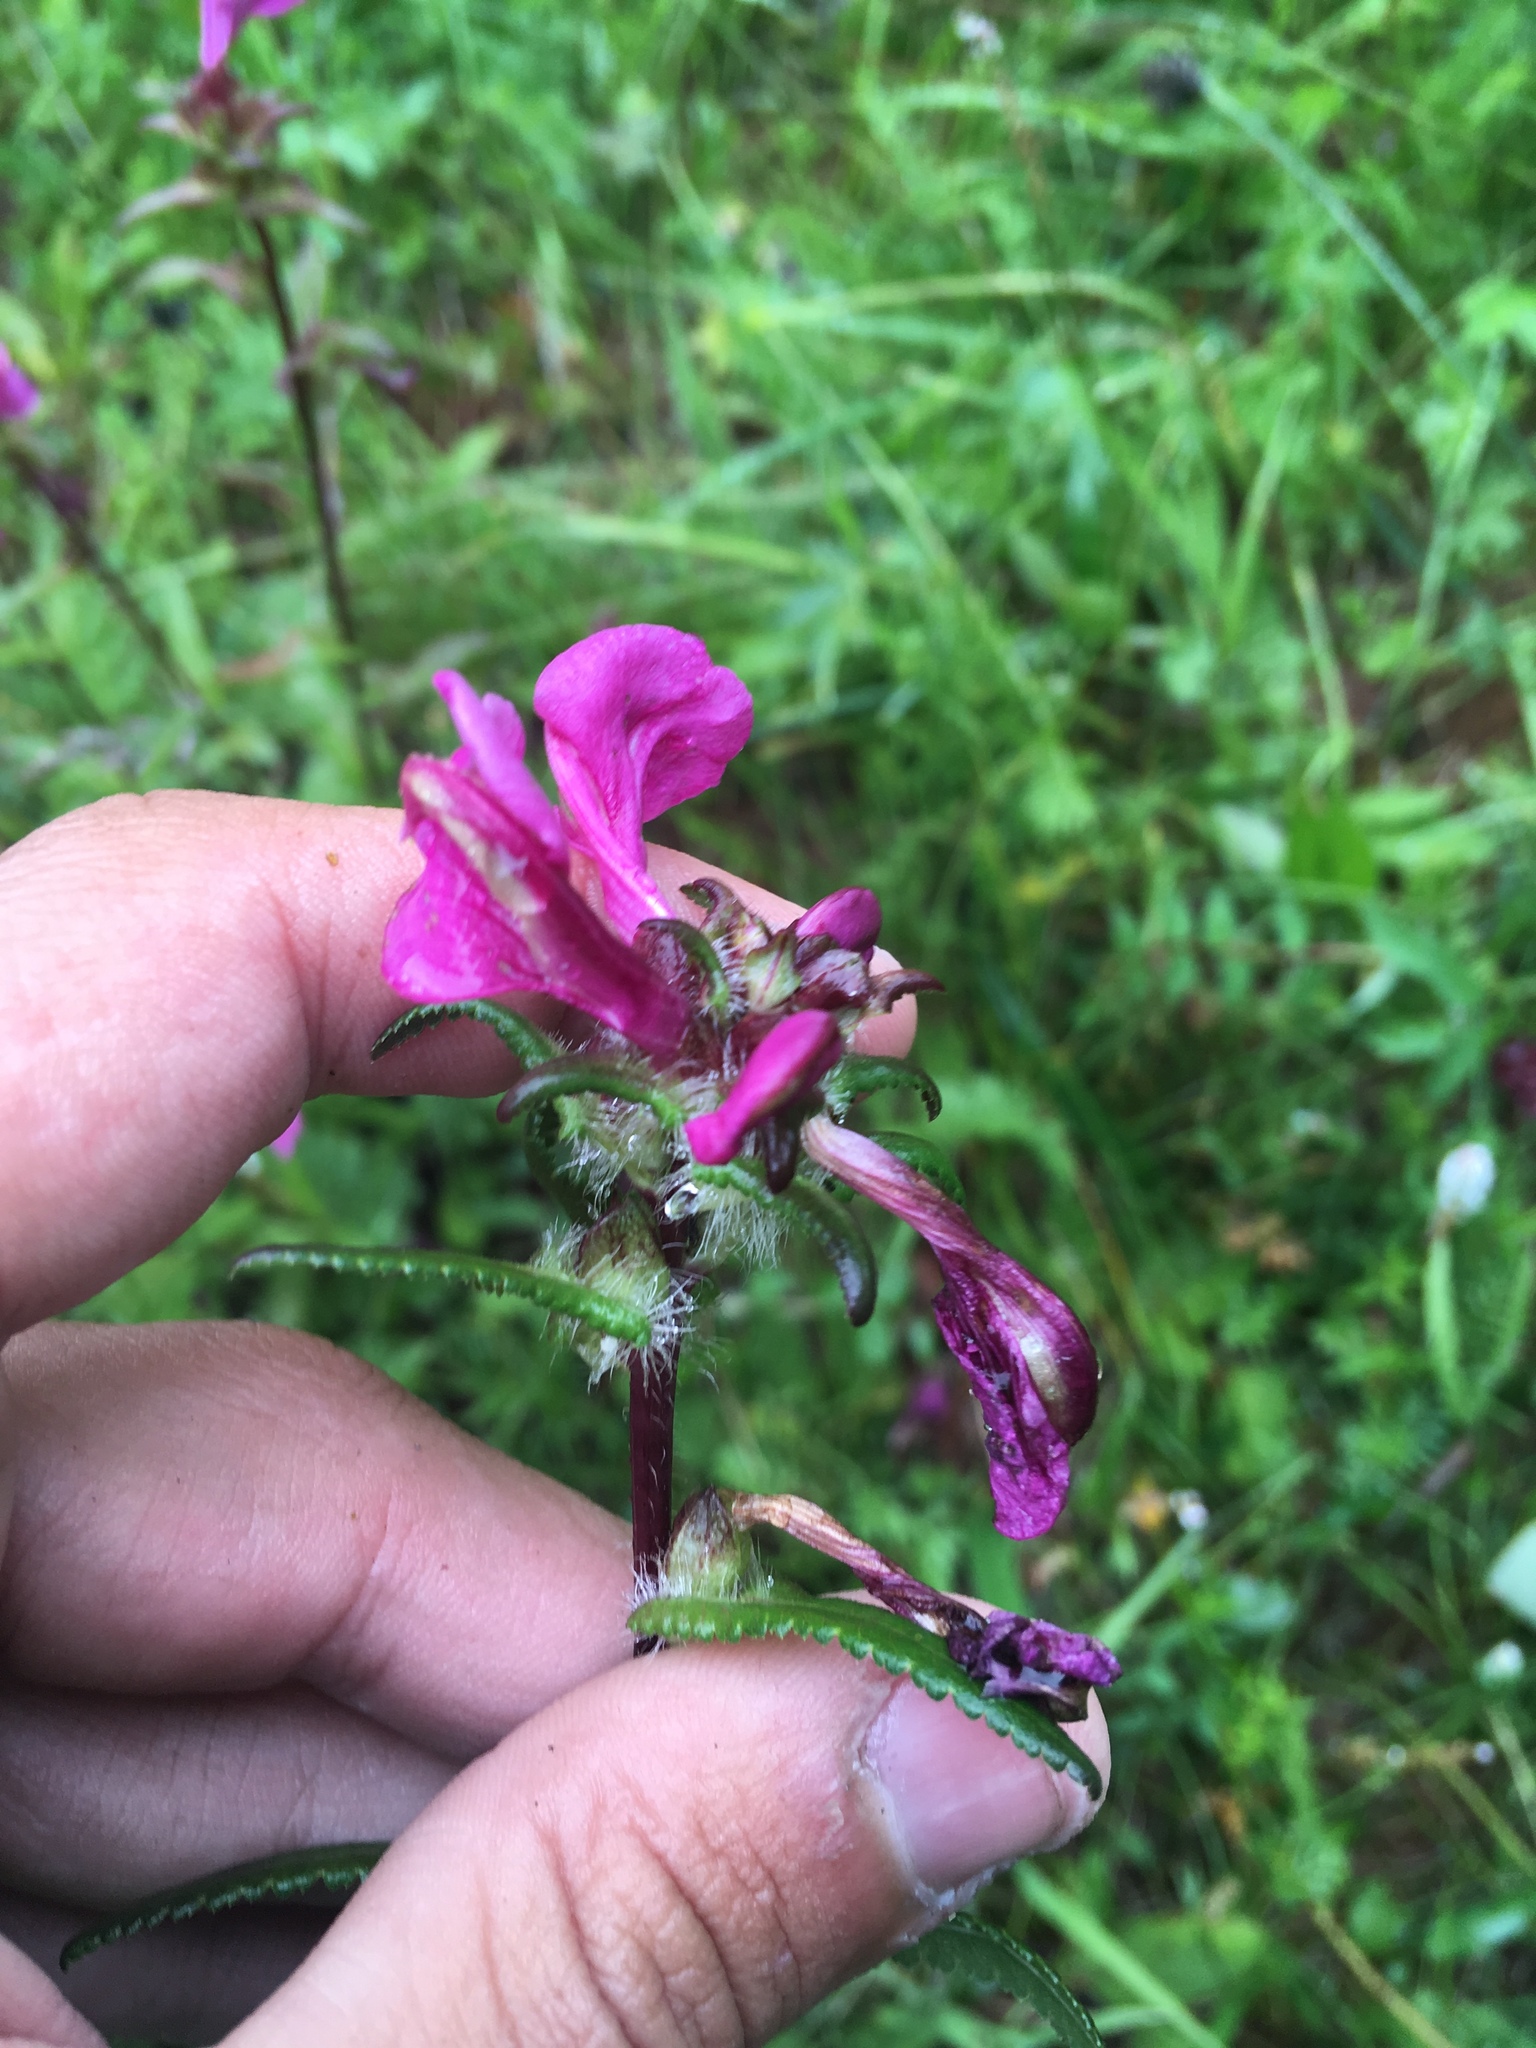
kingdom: Plantae
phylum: Tracheophyta
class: Magnoliopsida
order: Lamiales
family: Orobanchaceae
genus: Pedicularis
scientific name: Pedicularis resupinata
